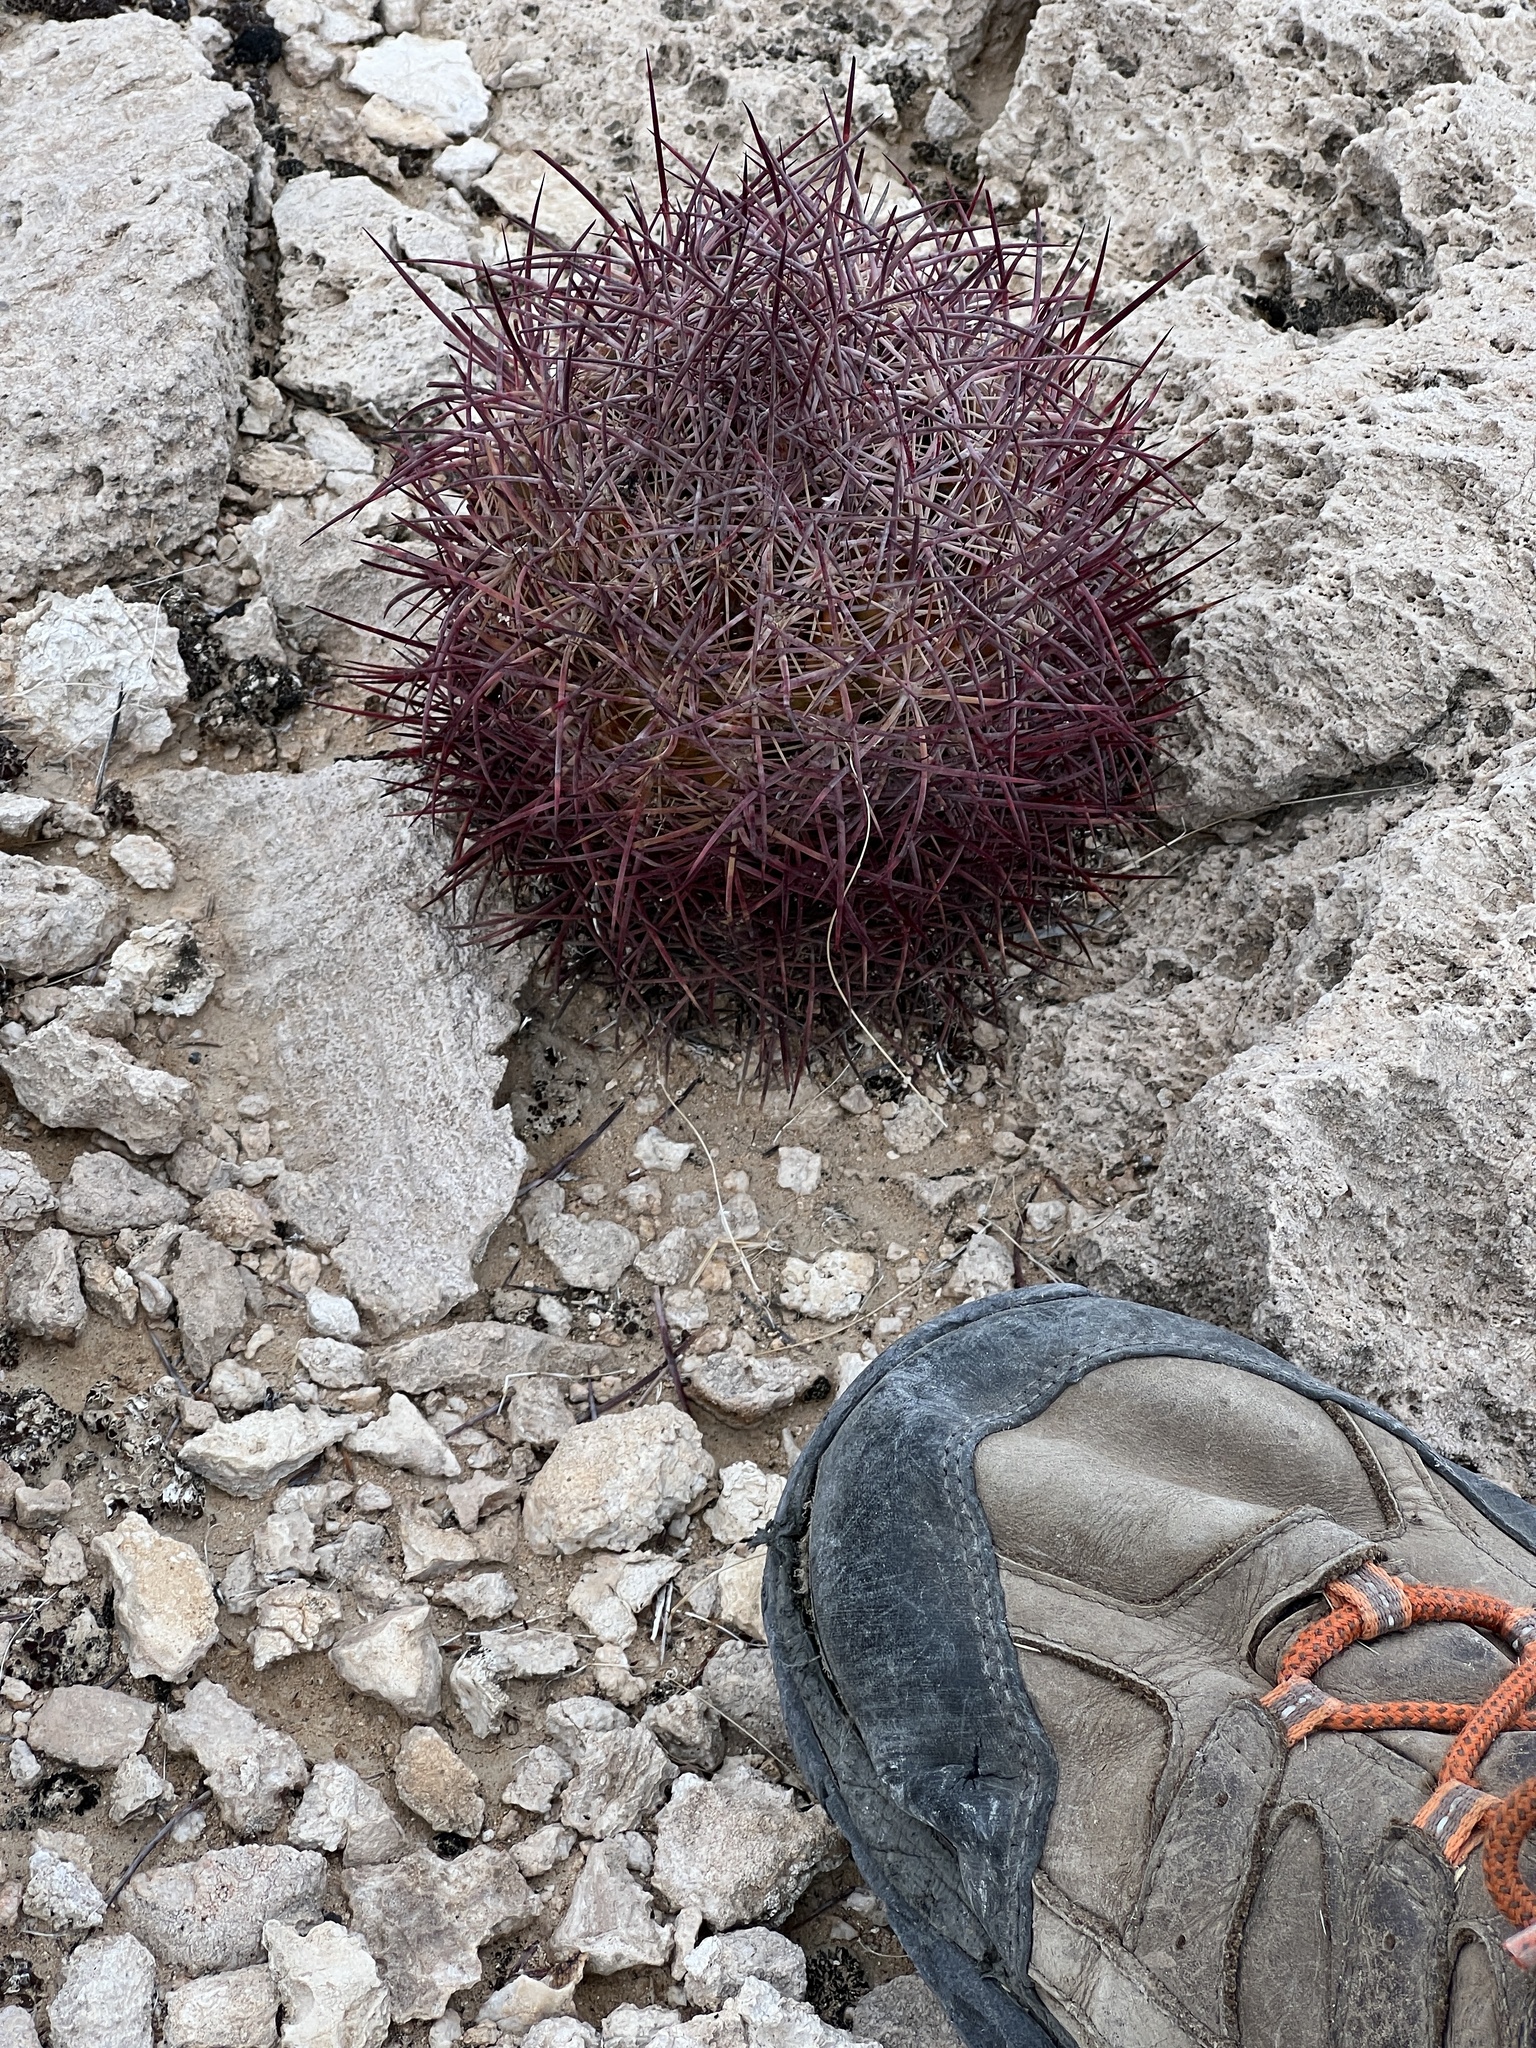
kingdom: Plantae
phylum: Tracheophyta
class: Magnoliopsida
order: Caryophyllales
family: Cactaceae
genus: Sclerocactus
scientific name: Sclerocactus johnsonii
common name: Eight-spine fishhook cactus
